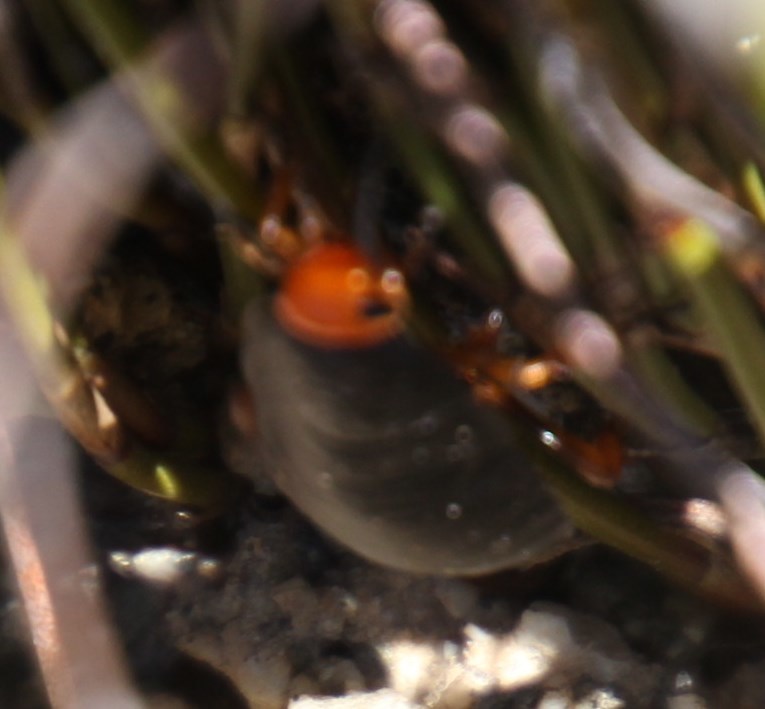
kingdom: Animalia
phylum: Arthropoda
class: Insecta
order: Blattodea
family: Blattidae
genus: Deropeltis
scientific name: Deropeltis erythrocephala
